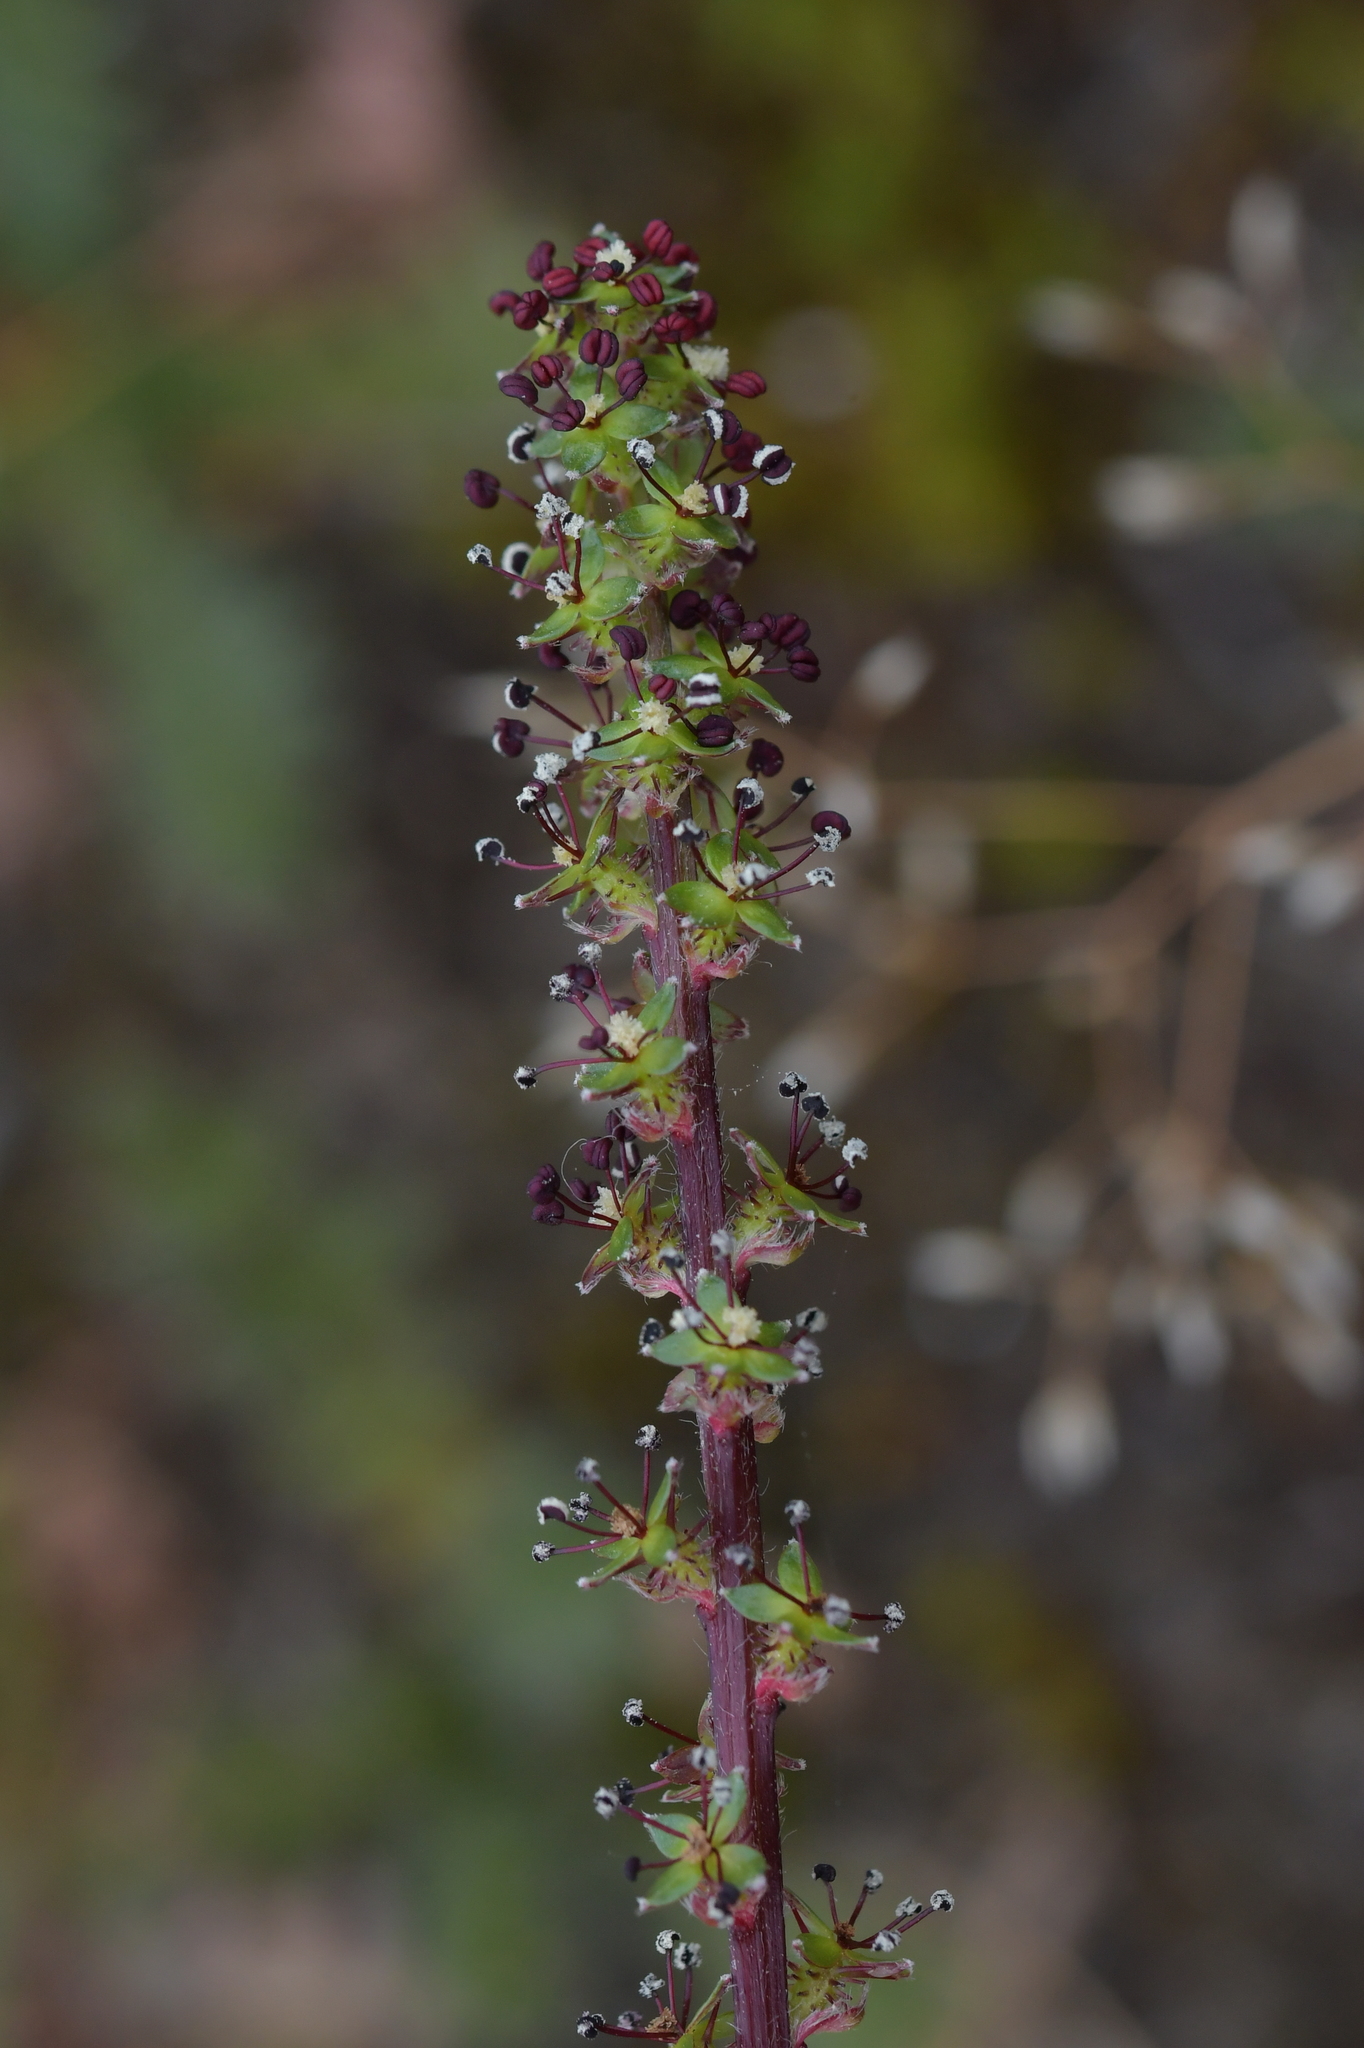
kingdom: Plantae
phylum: Tracheophyta
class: Magnoliopsida
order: Rosales
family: Rosaceae
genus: Acaena
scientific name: Acaena agnipila
